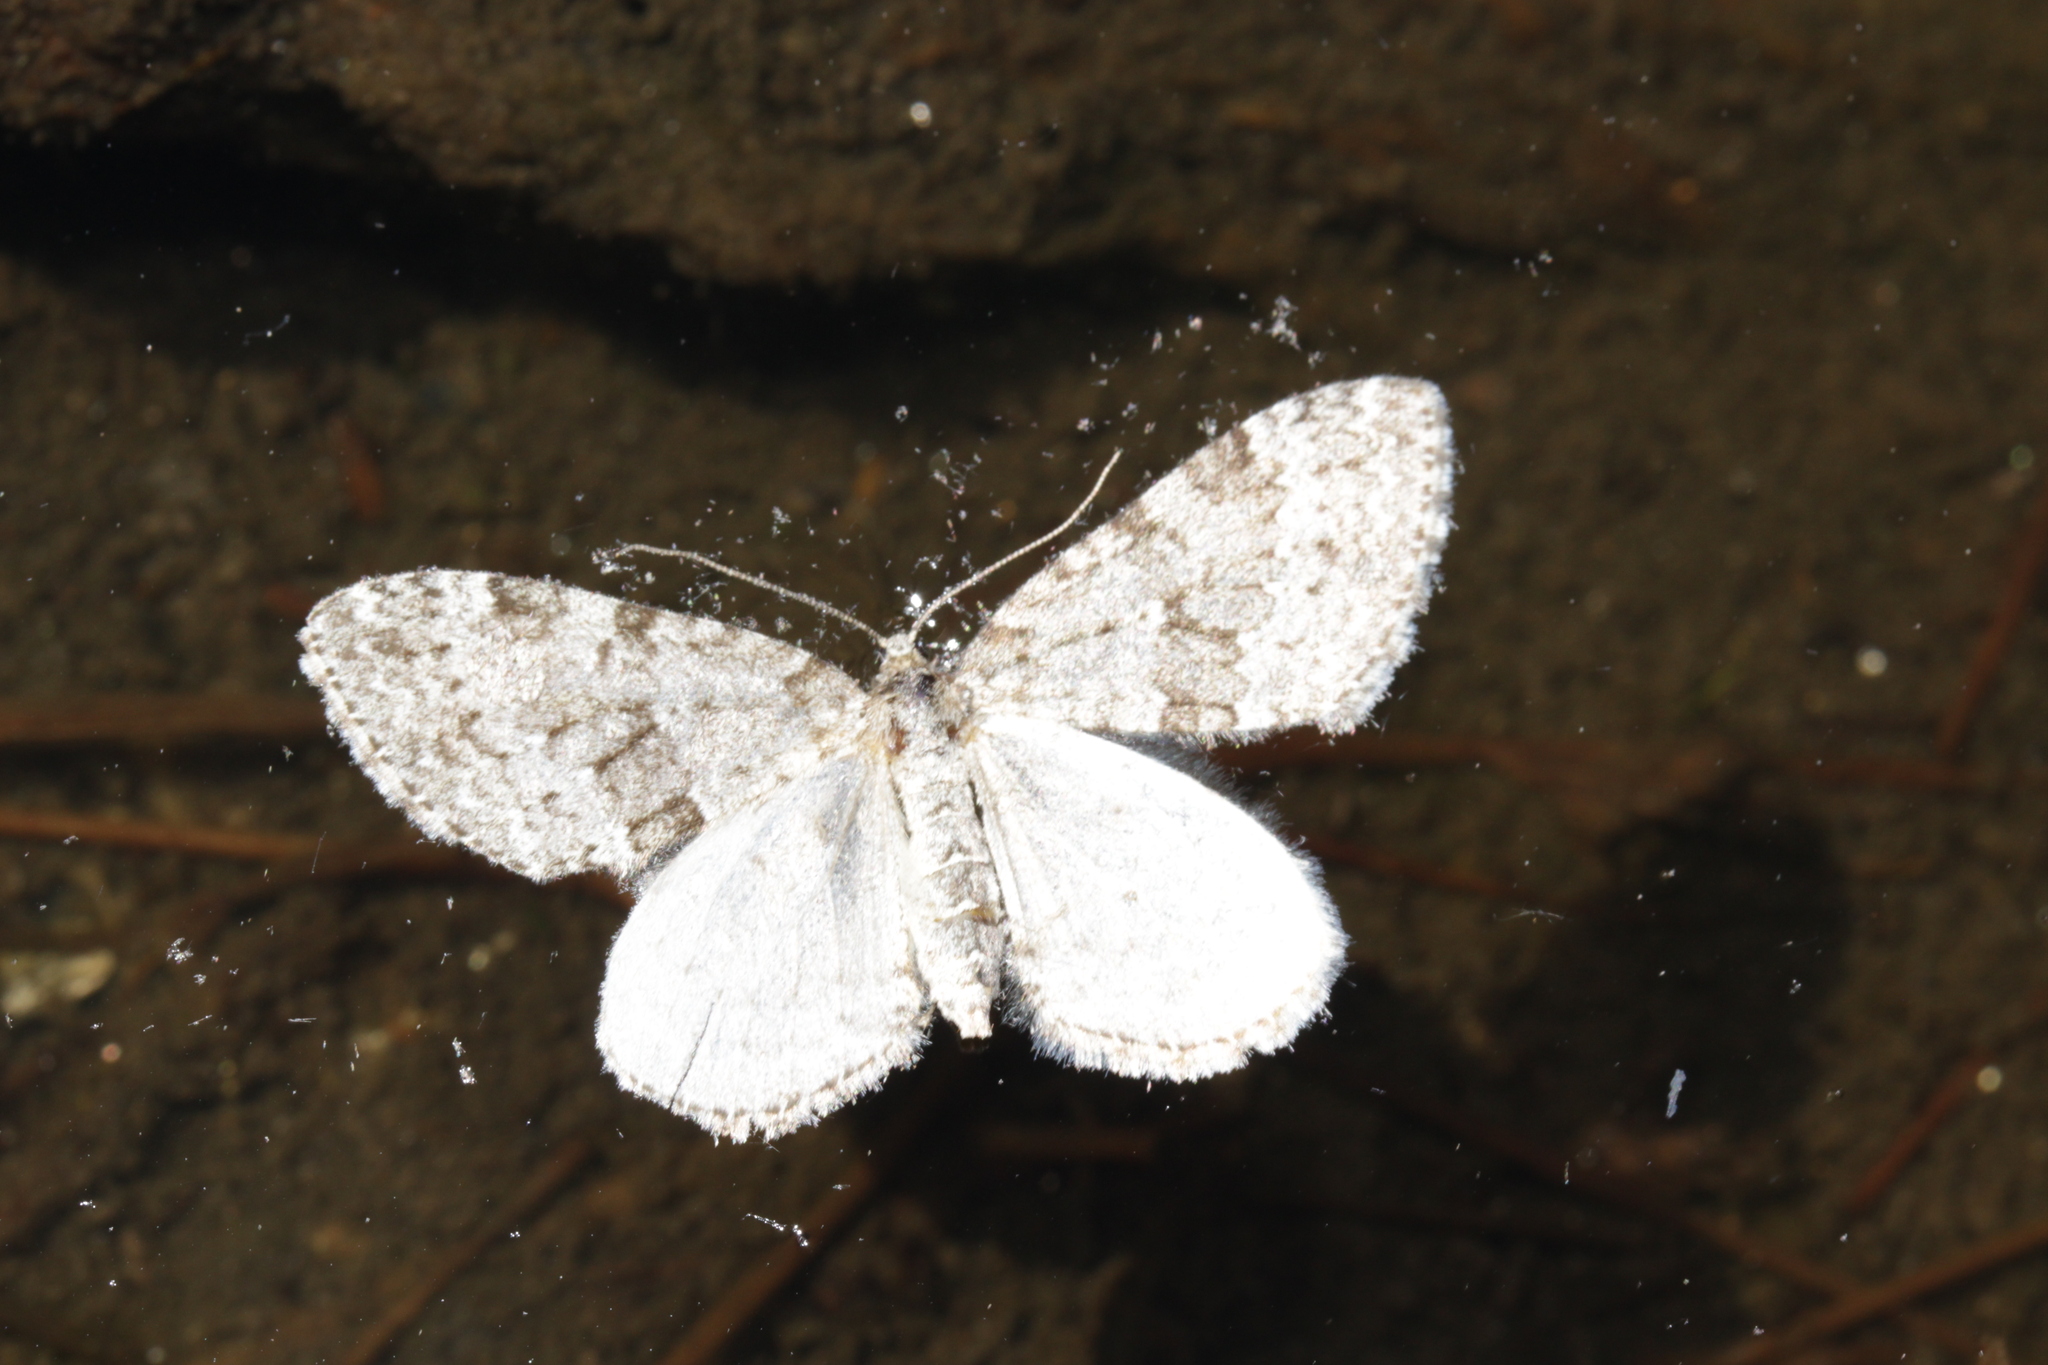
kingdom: Animalia
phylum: Arthropoda
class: Insecta
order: Lepidoptera
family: Geometridae
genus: Entephria
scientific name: Entephria caesiata
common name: Grey mountain moth
